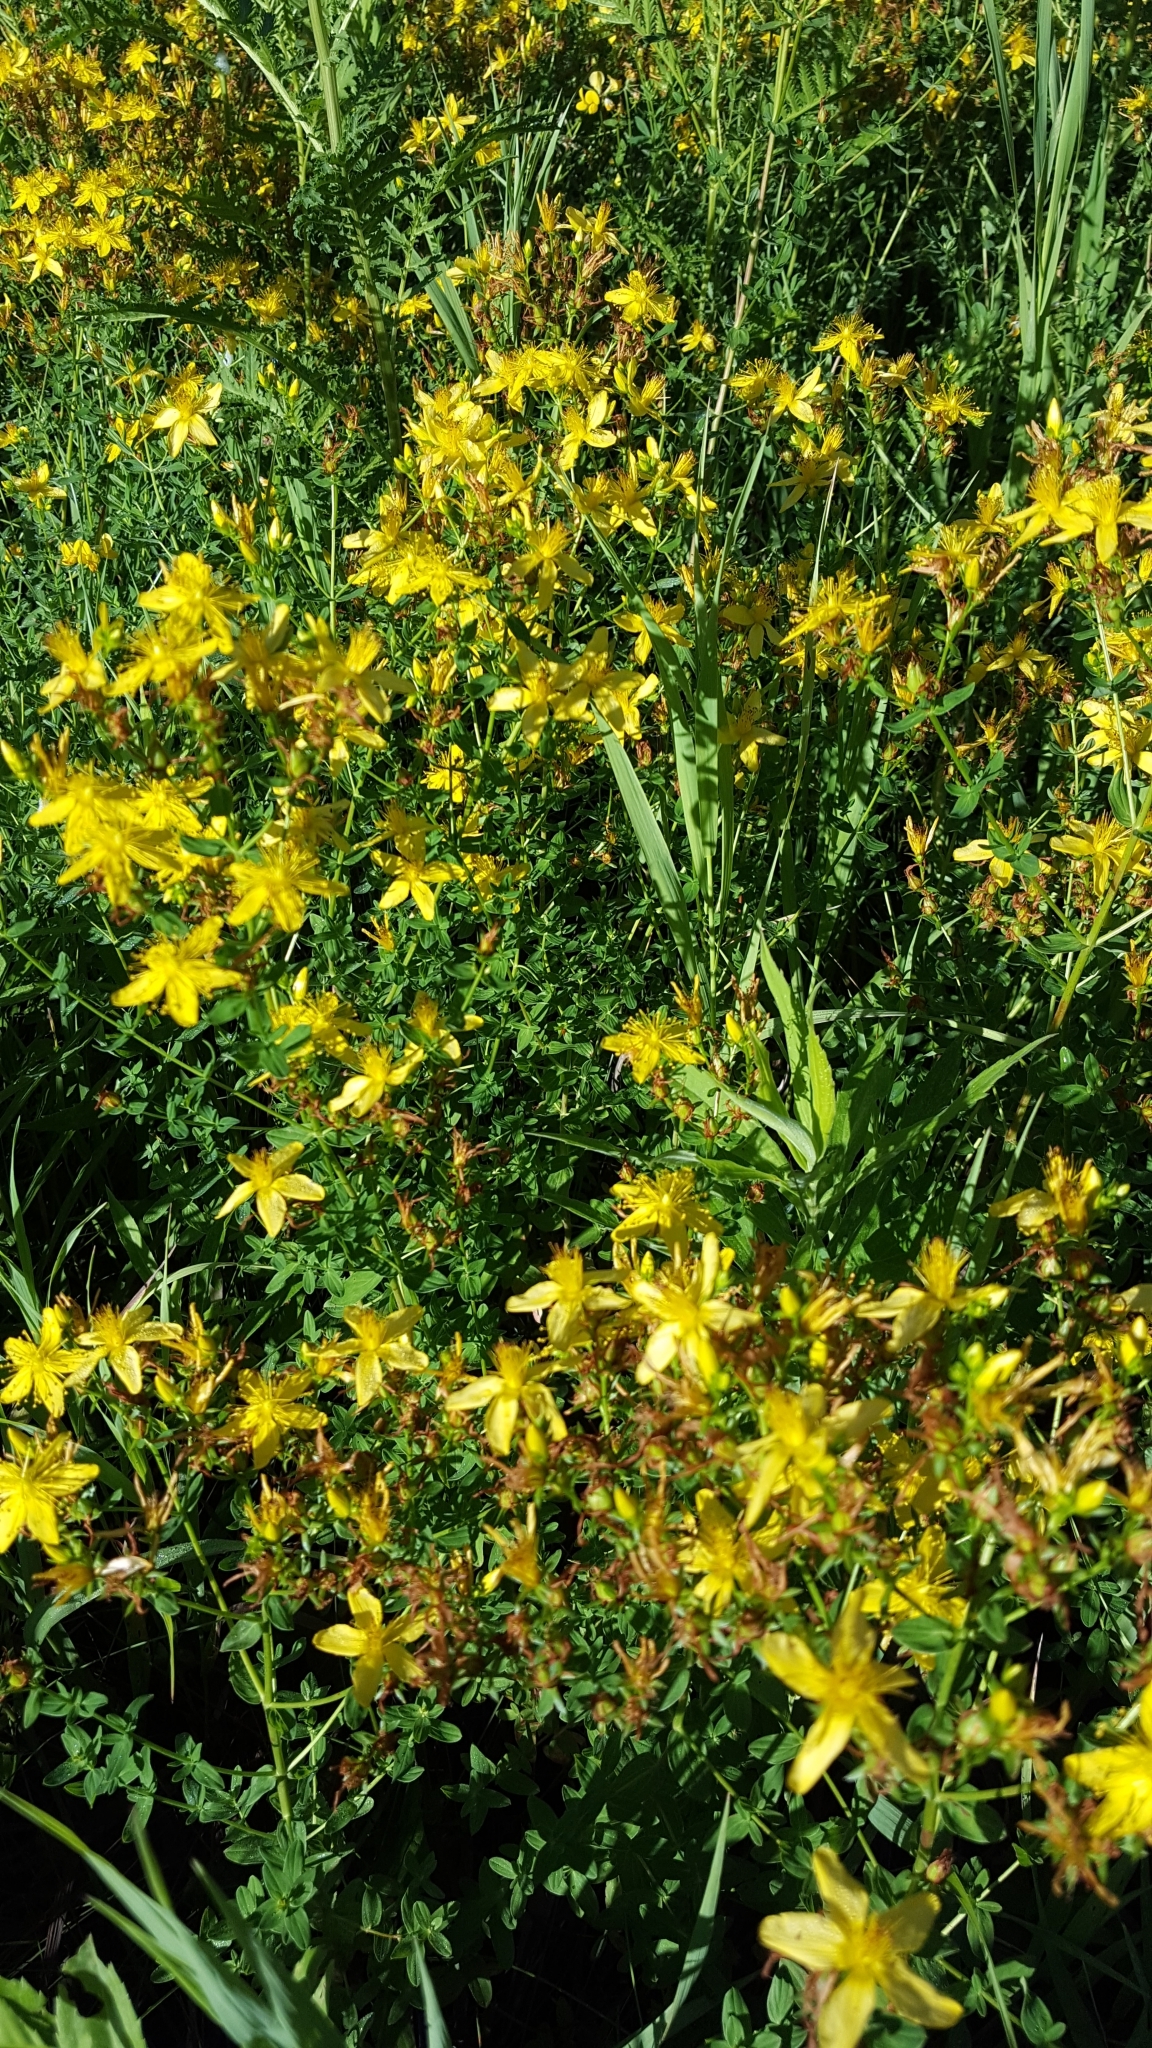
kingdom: Plantae
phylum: Tracheophyta
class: Magnoliopsida
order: Malpighiales
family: Hypericaceae
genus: Hypericum
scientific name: Hypericum perforatum
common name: Common st. johnswort
